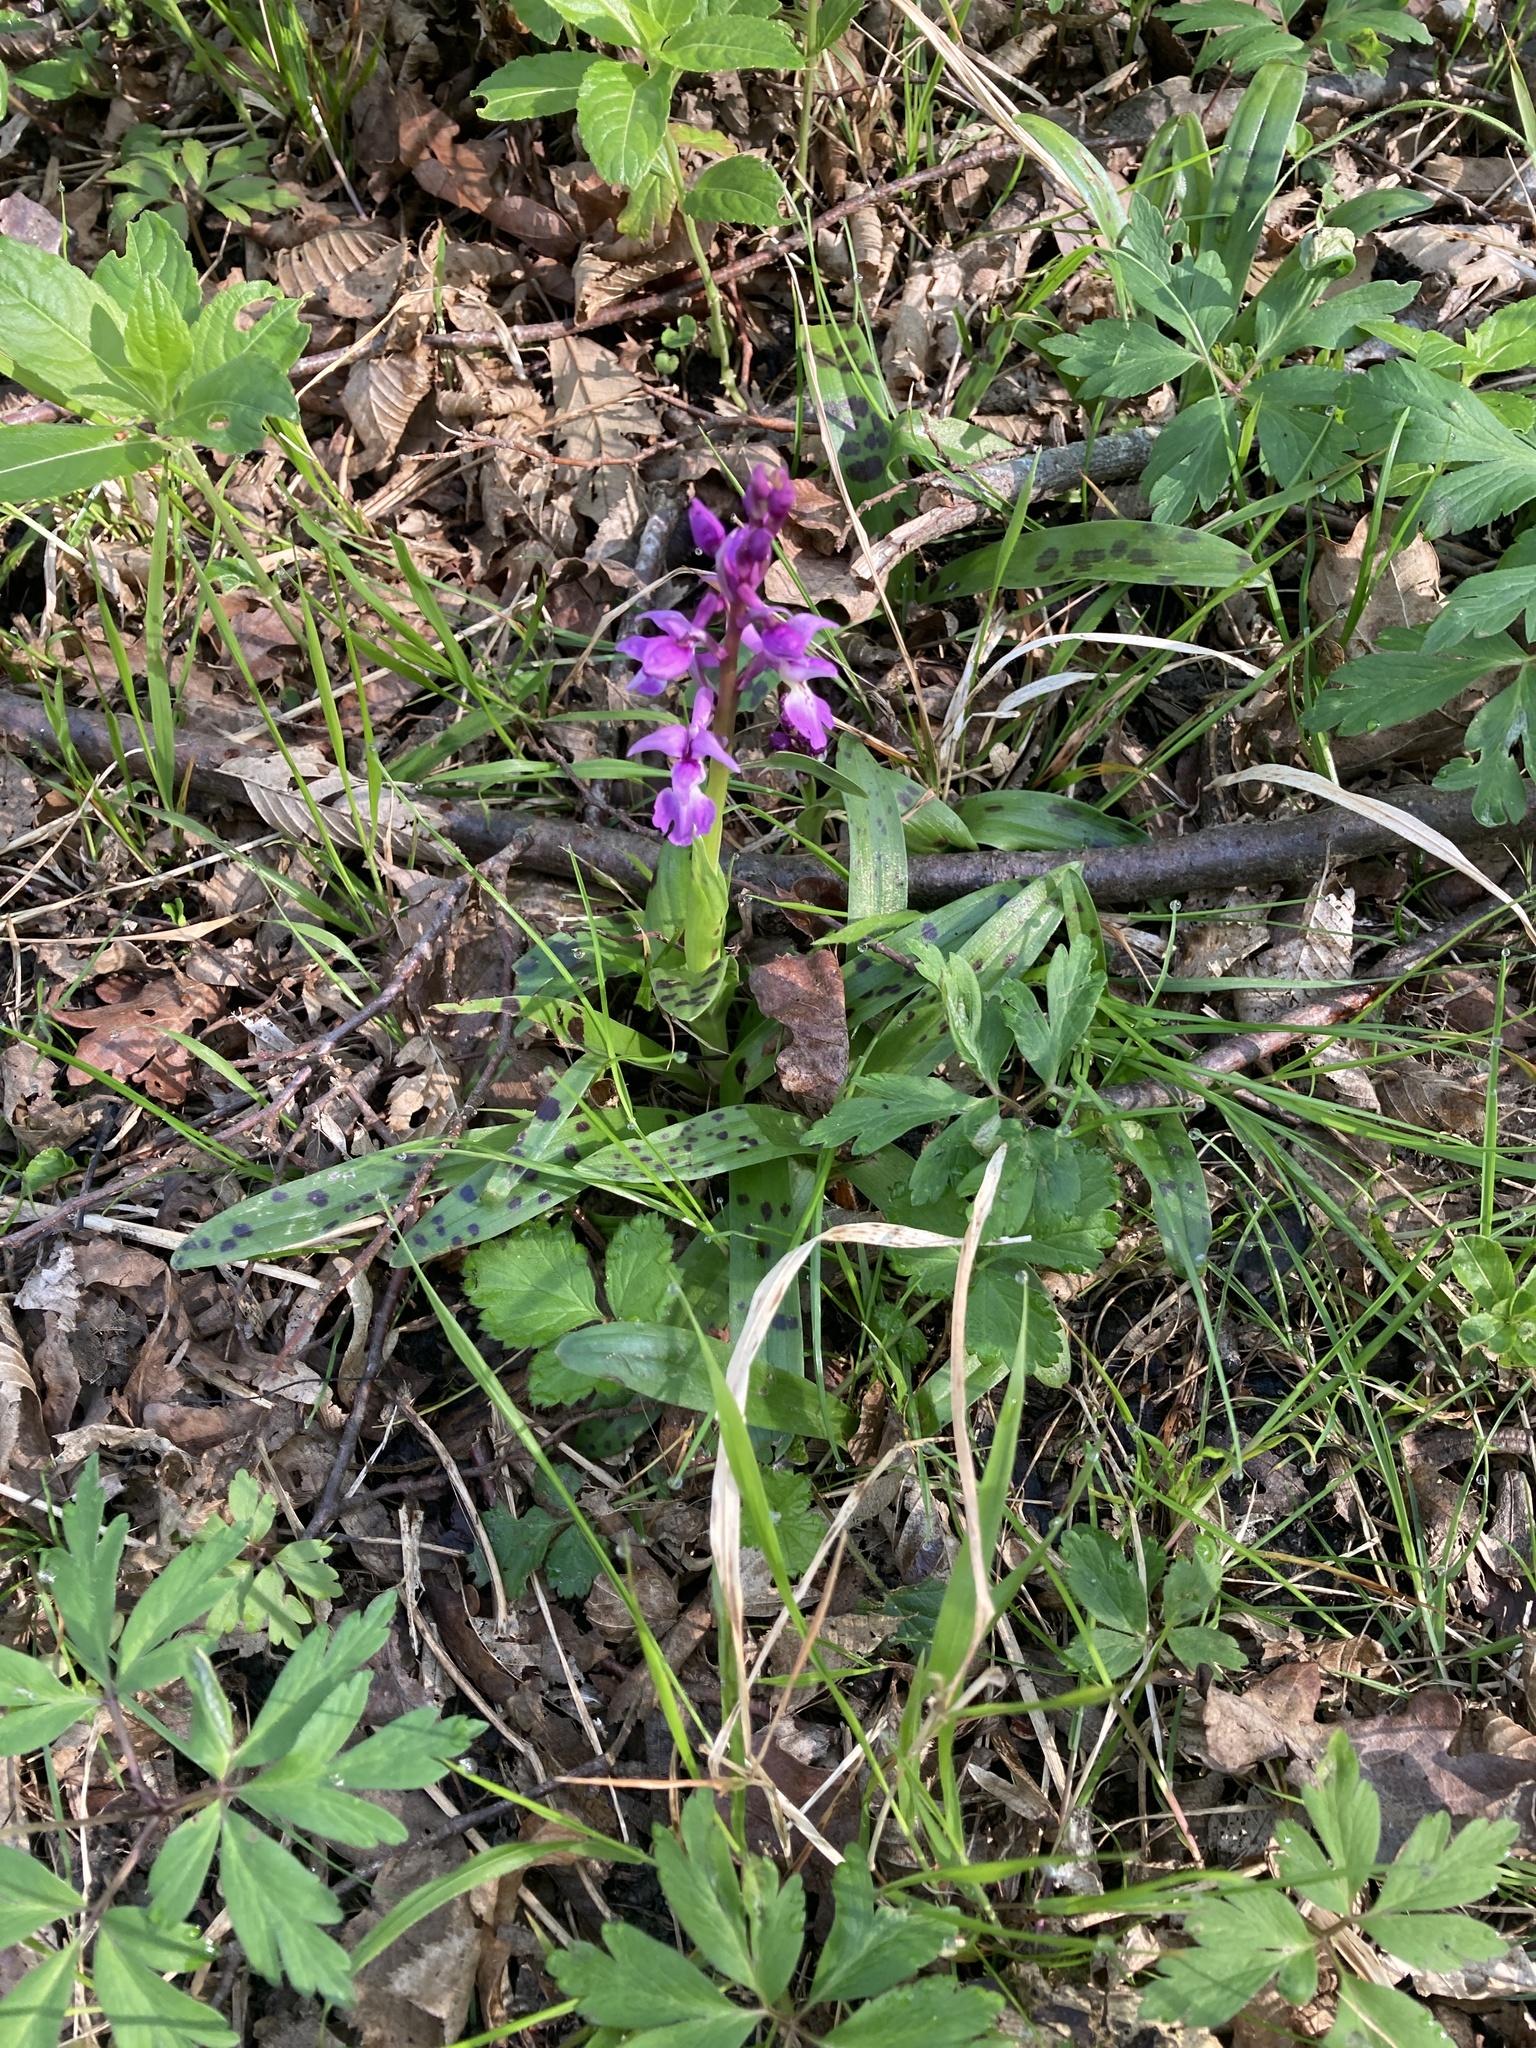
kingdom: Plantae
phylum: Tracheophyta
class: Liliopsida
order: Asparagales
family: Orchidaceae
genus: Orchis
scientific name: Orchis mascula
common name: Early-purple orchid
